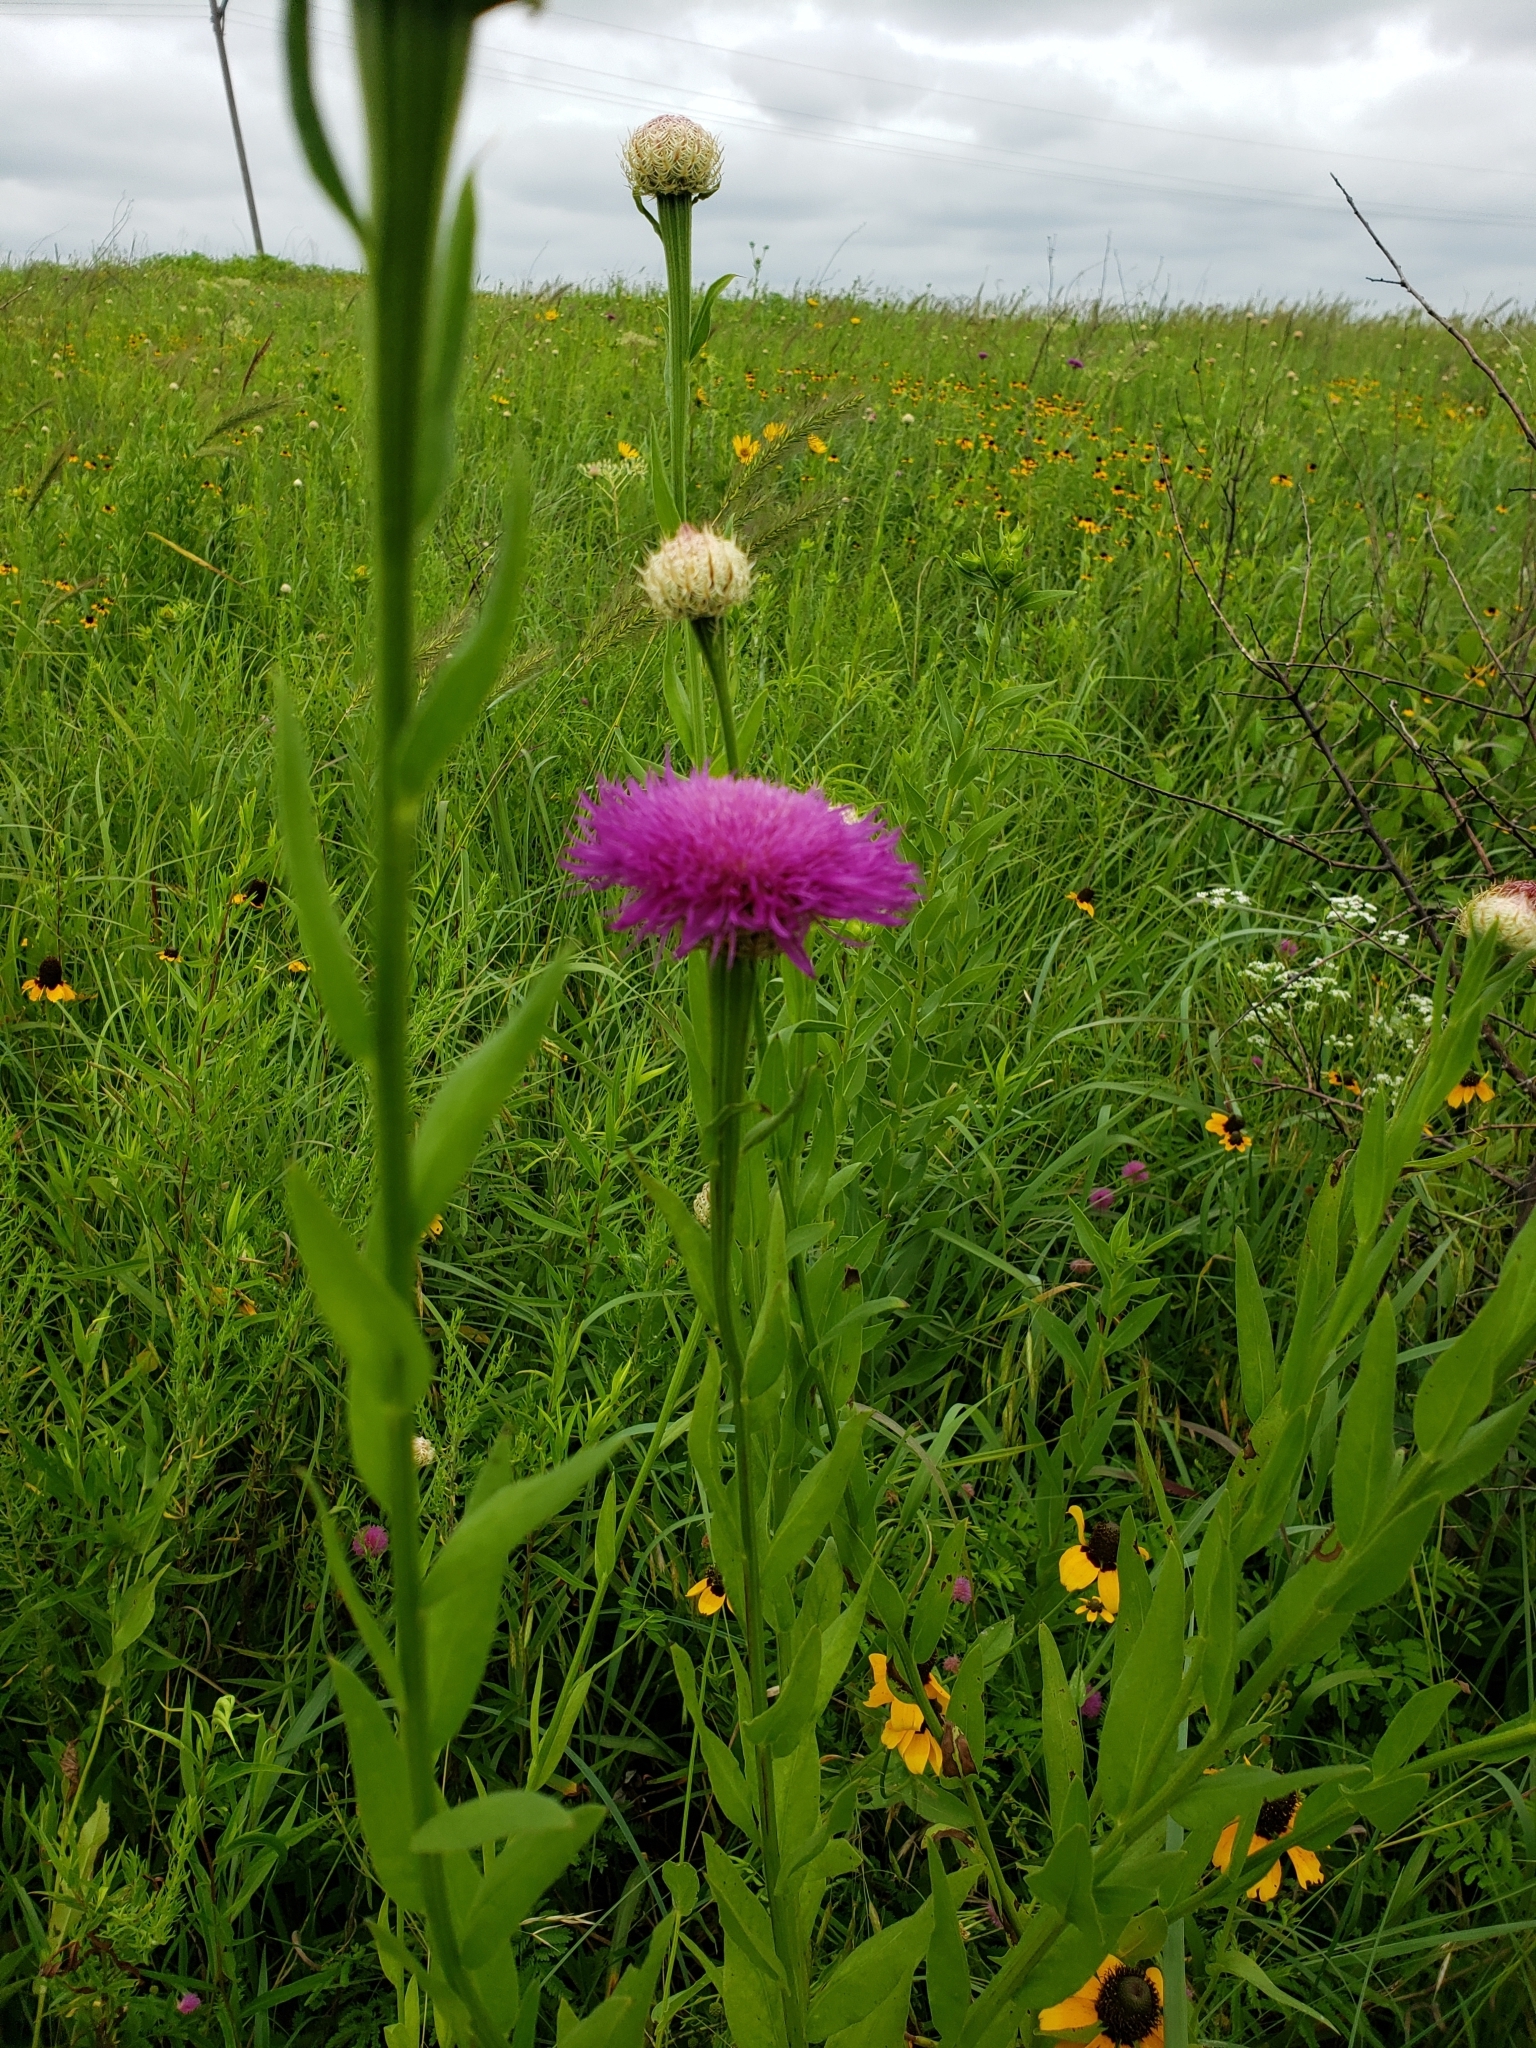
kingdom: Plantae
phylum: Tracheophyta
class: Magnoliopsida
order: Asterales
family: Asteraceae
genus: Plectocephalus
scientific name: Plectocephalus americanus
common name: American basket-flower
